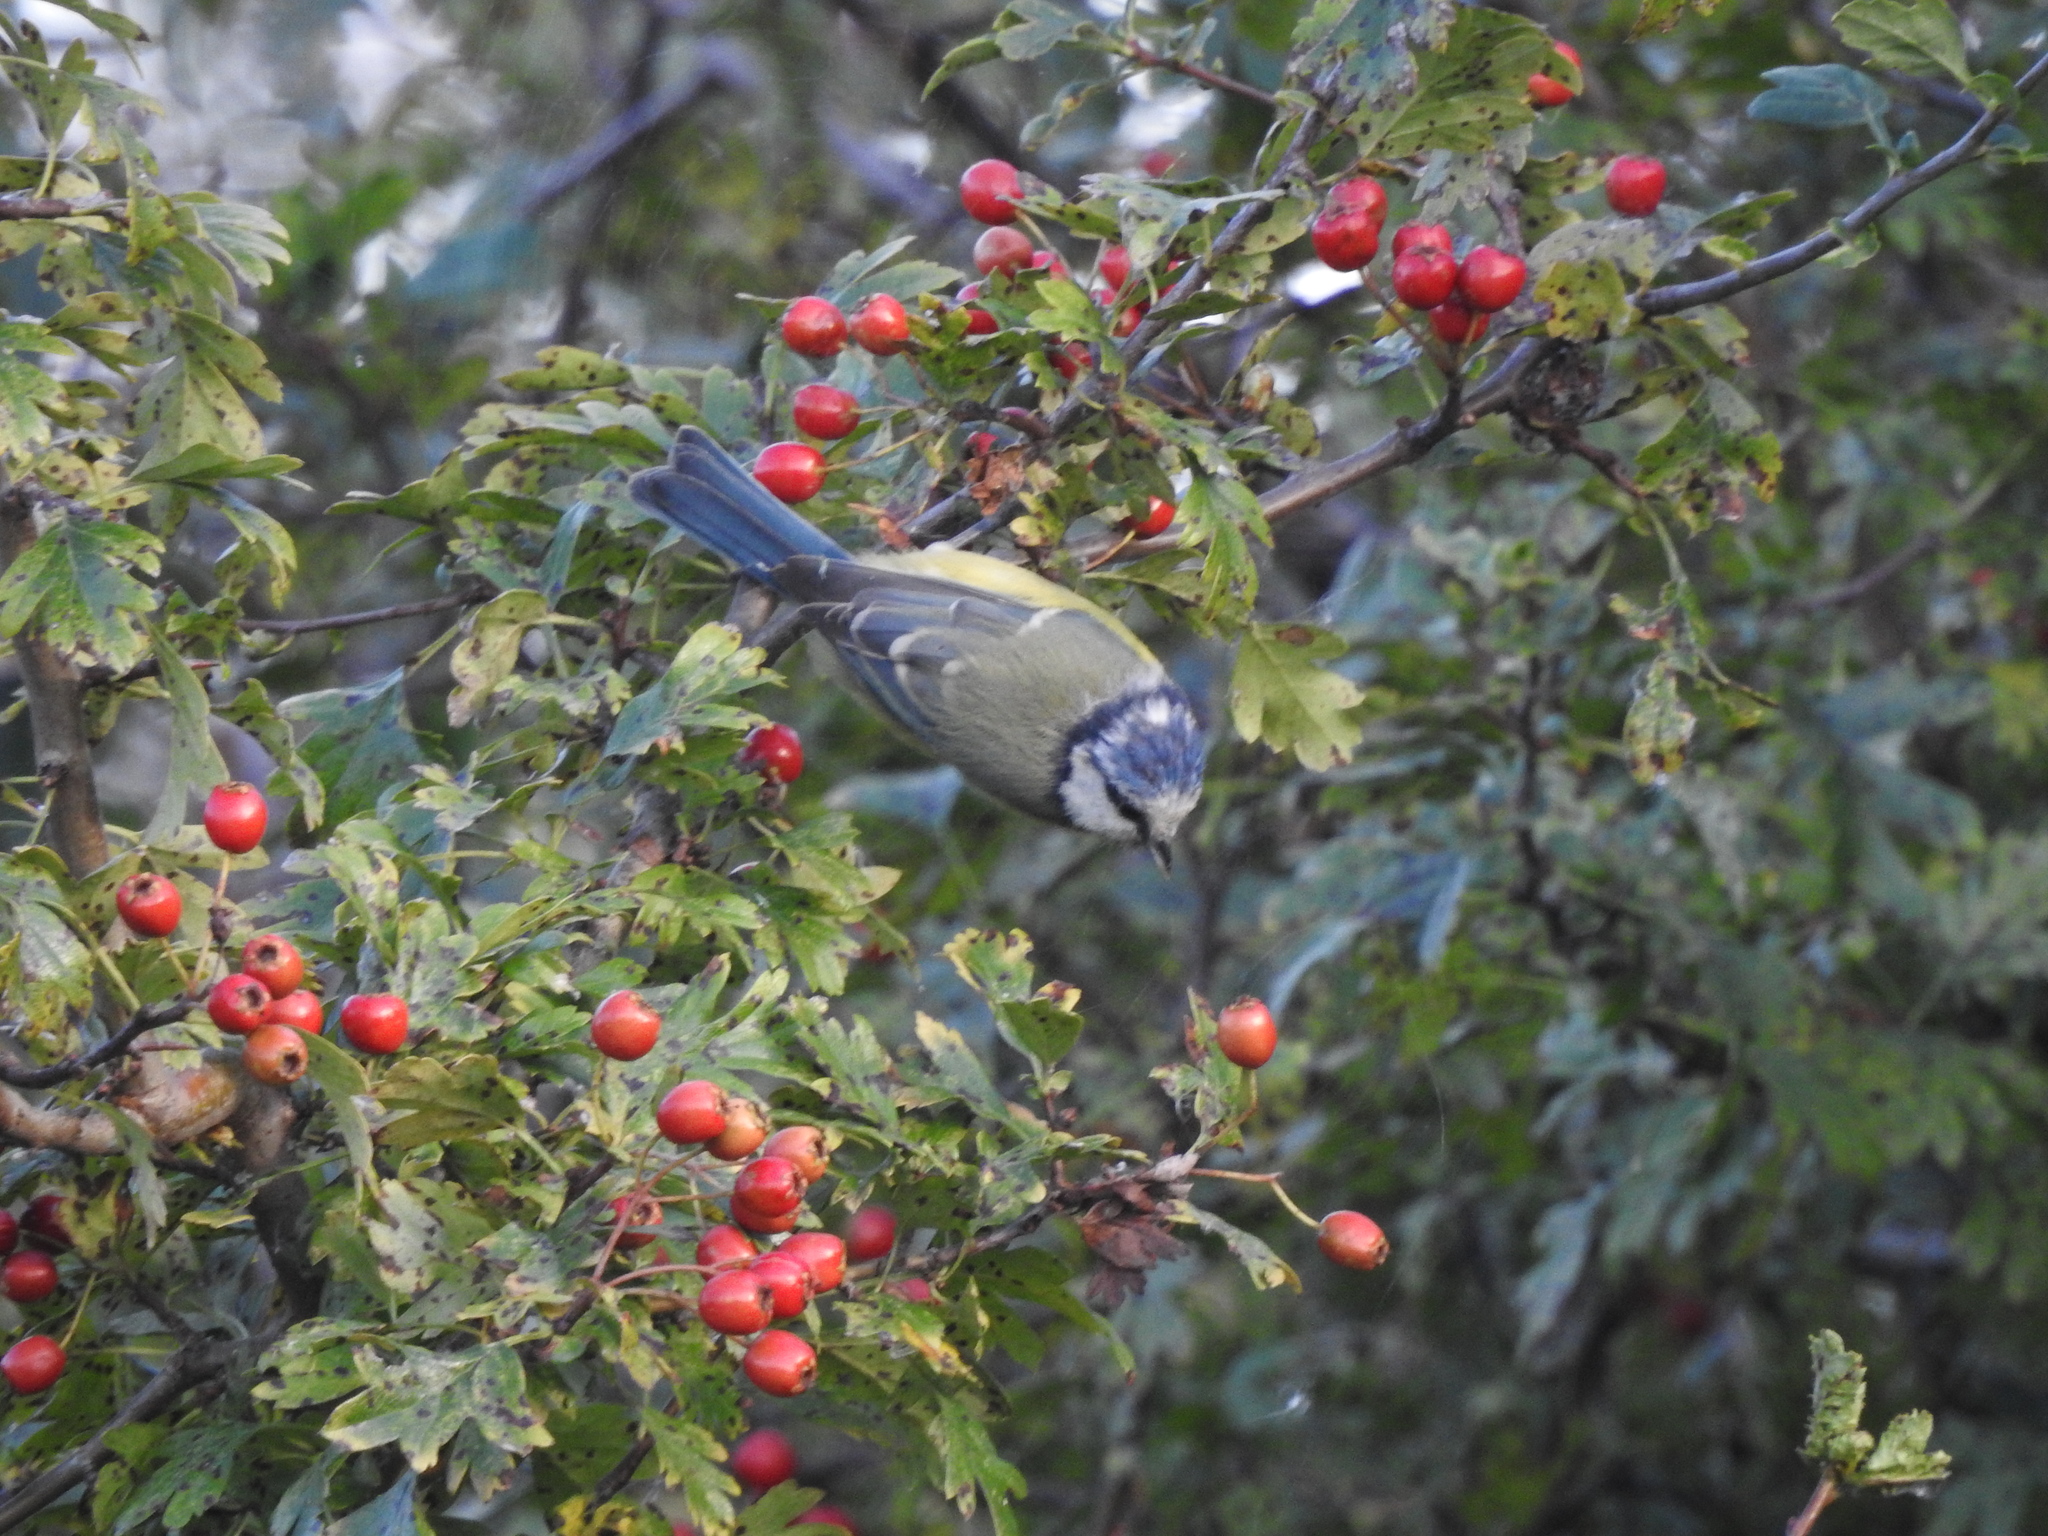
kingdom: Animalia
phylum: Chordata
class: Aves
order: Passeriformes
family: Paridae
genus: Cyanistes
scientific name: Cyanistes caeruleus
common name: Eurasian blue tit
